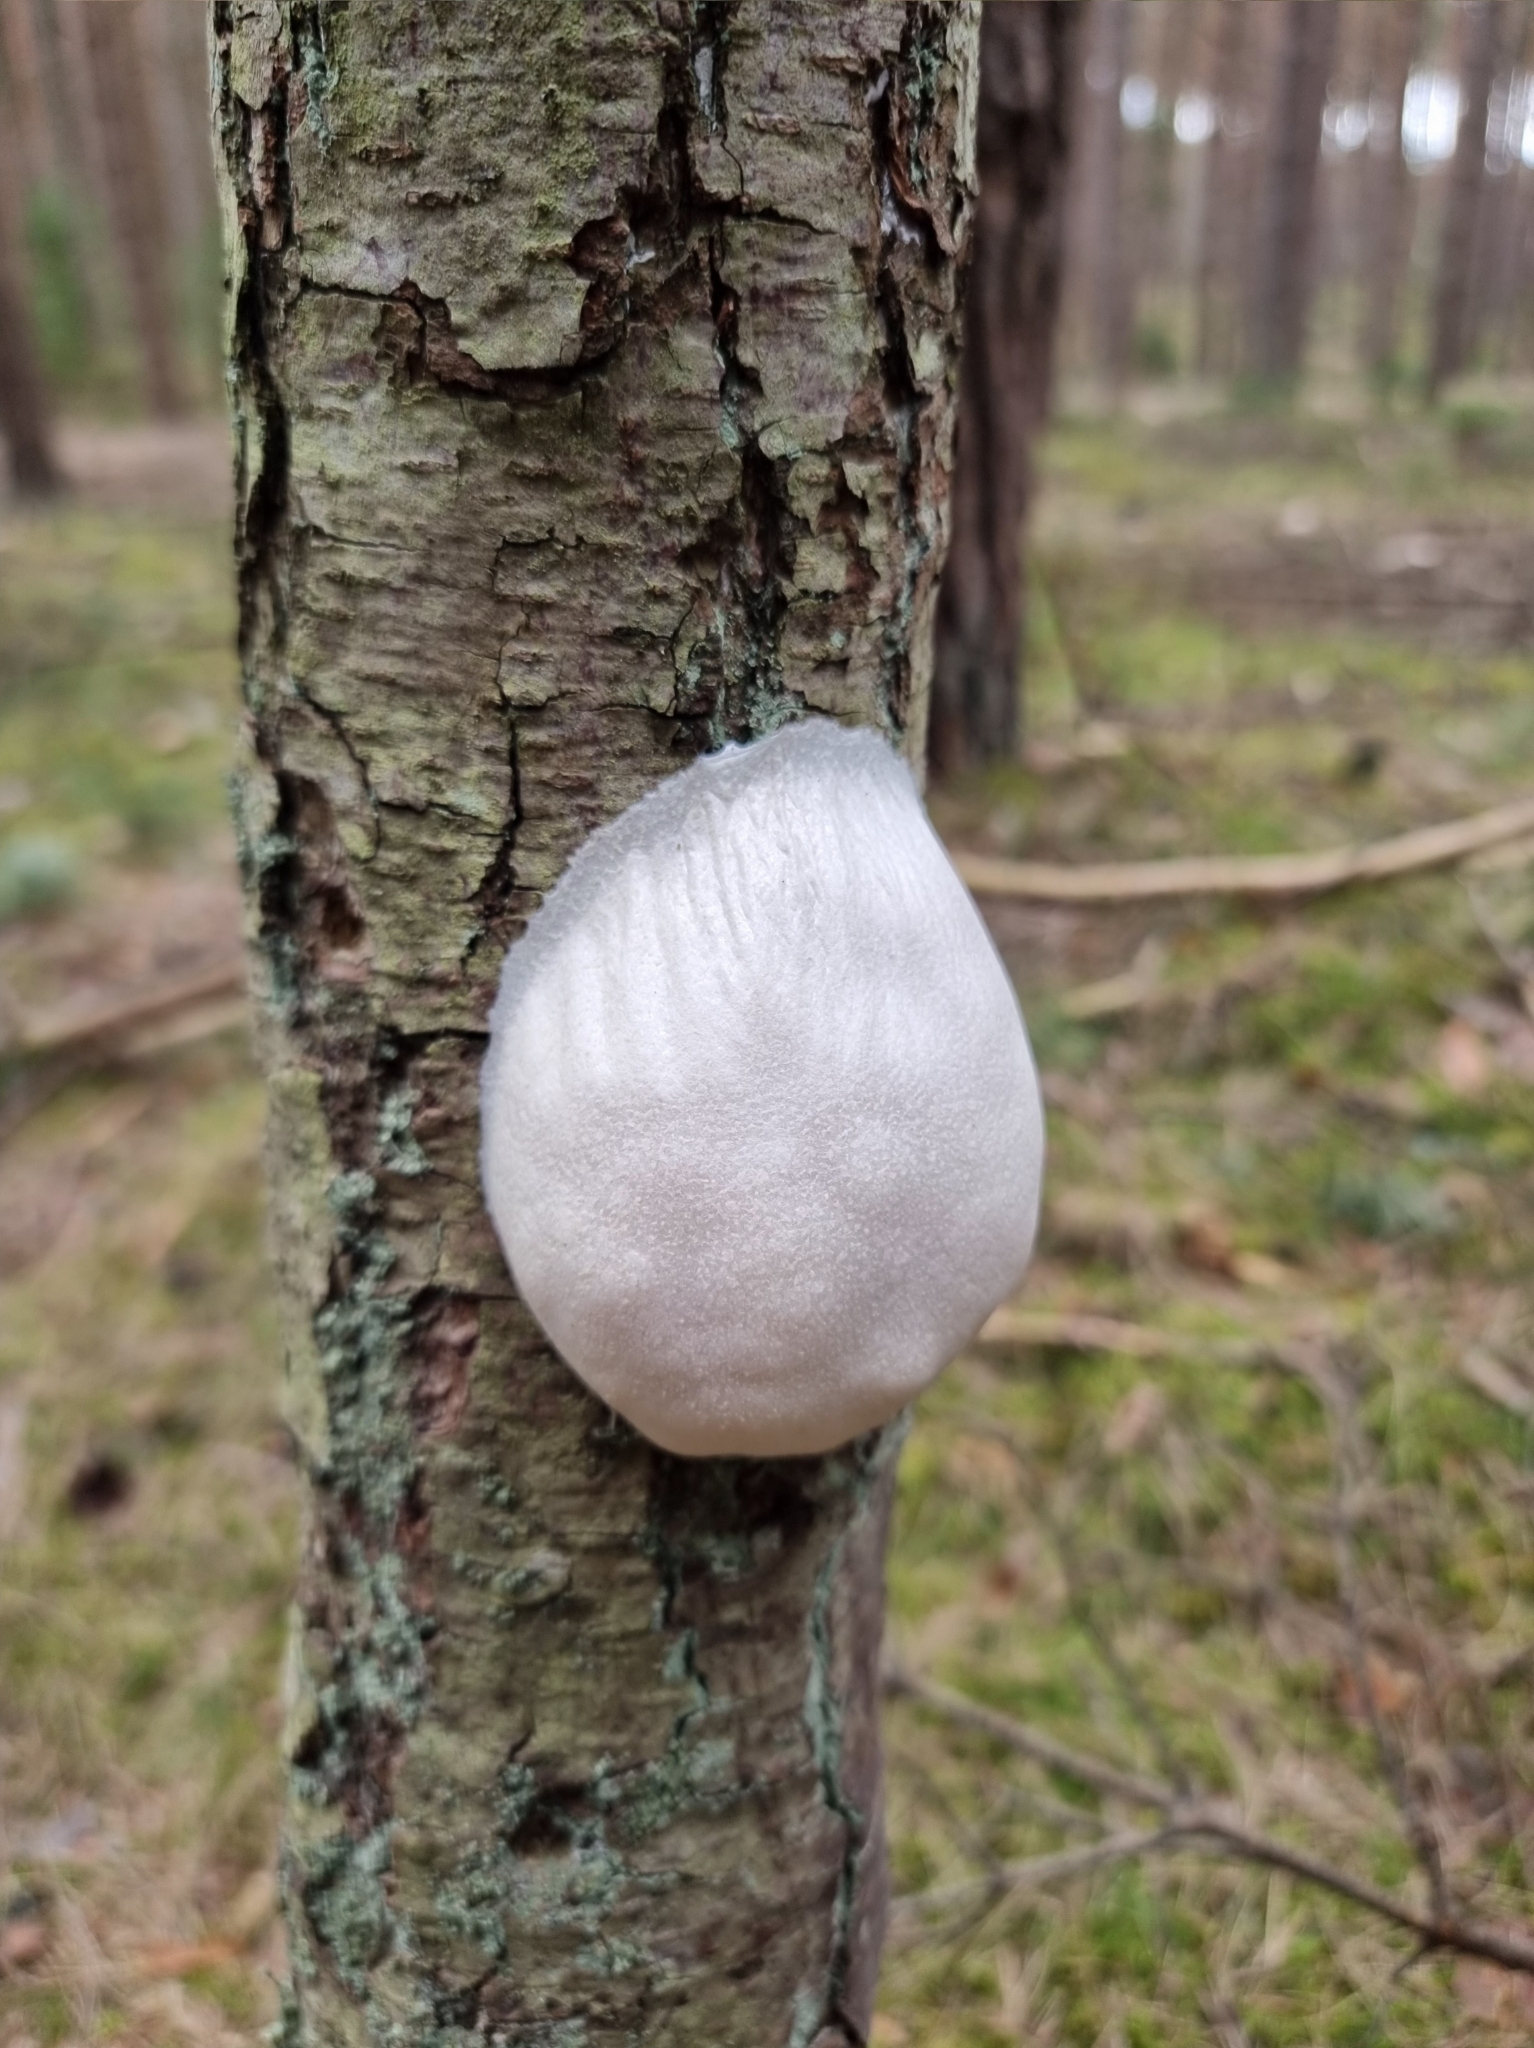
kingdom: Protozoa
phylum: Mycetozoa
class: Myxomycetes
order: Cribrariales
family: Tubiferaceae
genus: Reticularia
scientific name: Reticularia lycoperdon
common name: False puffball
